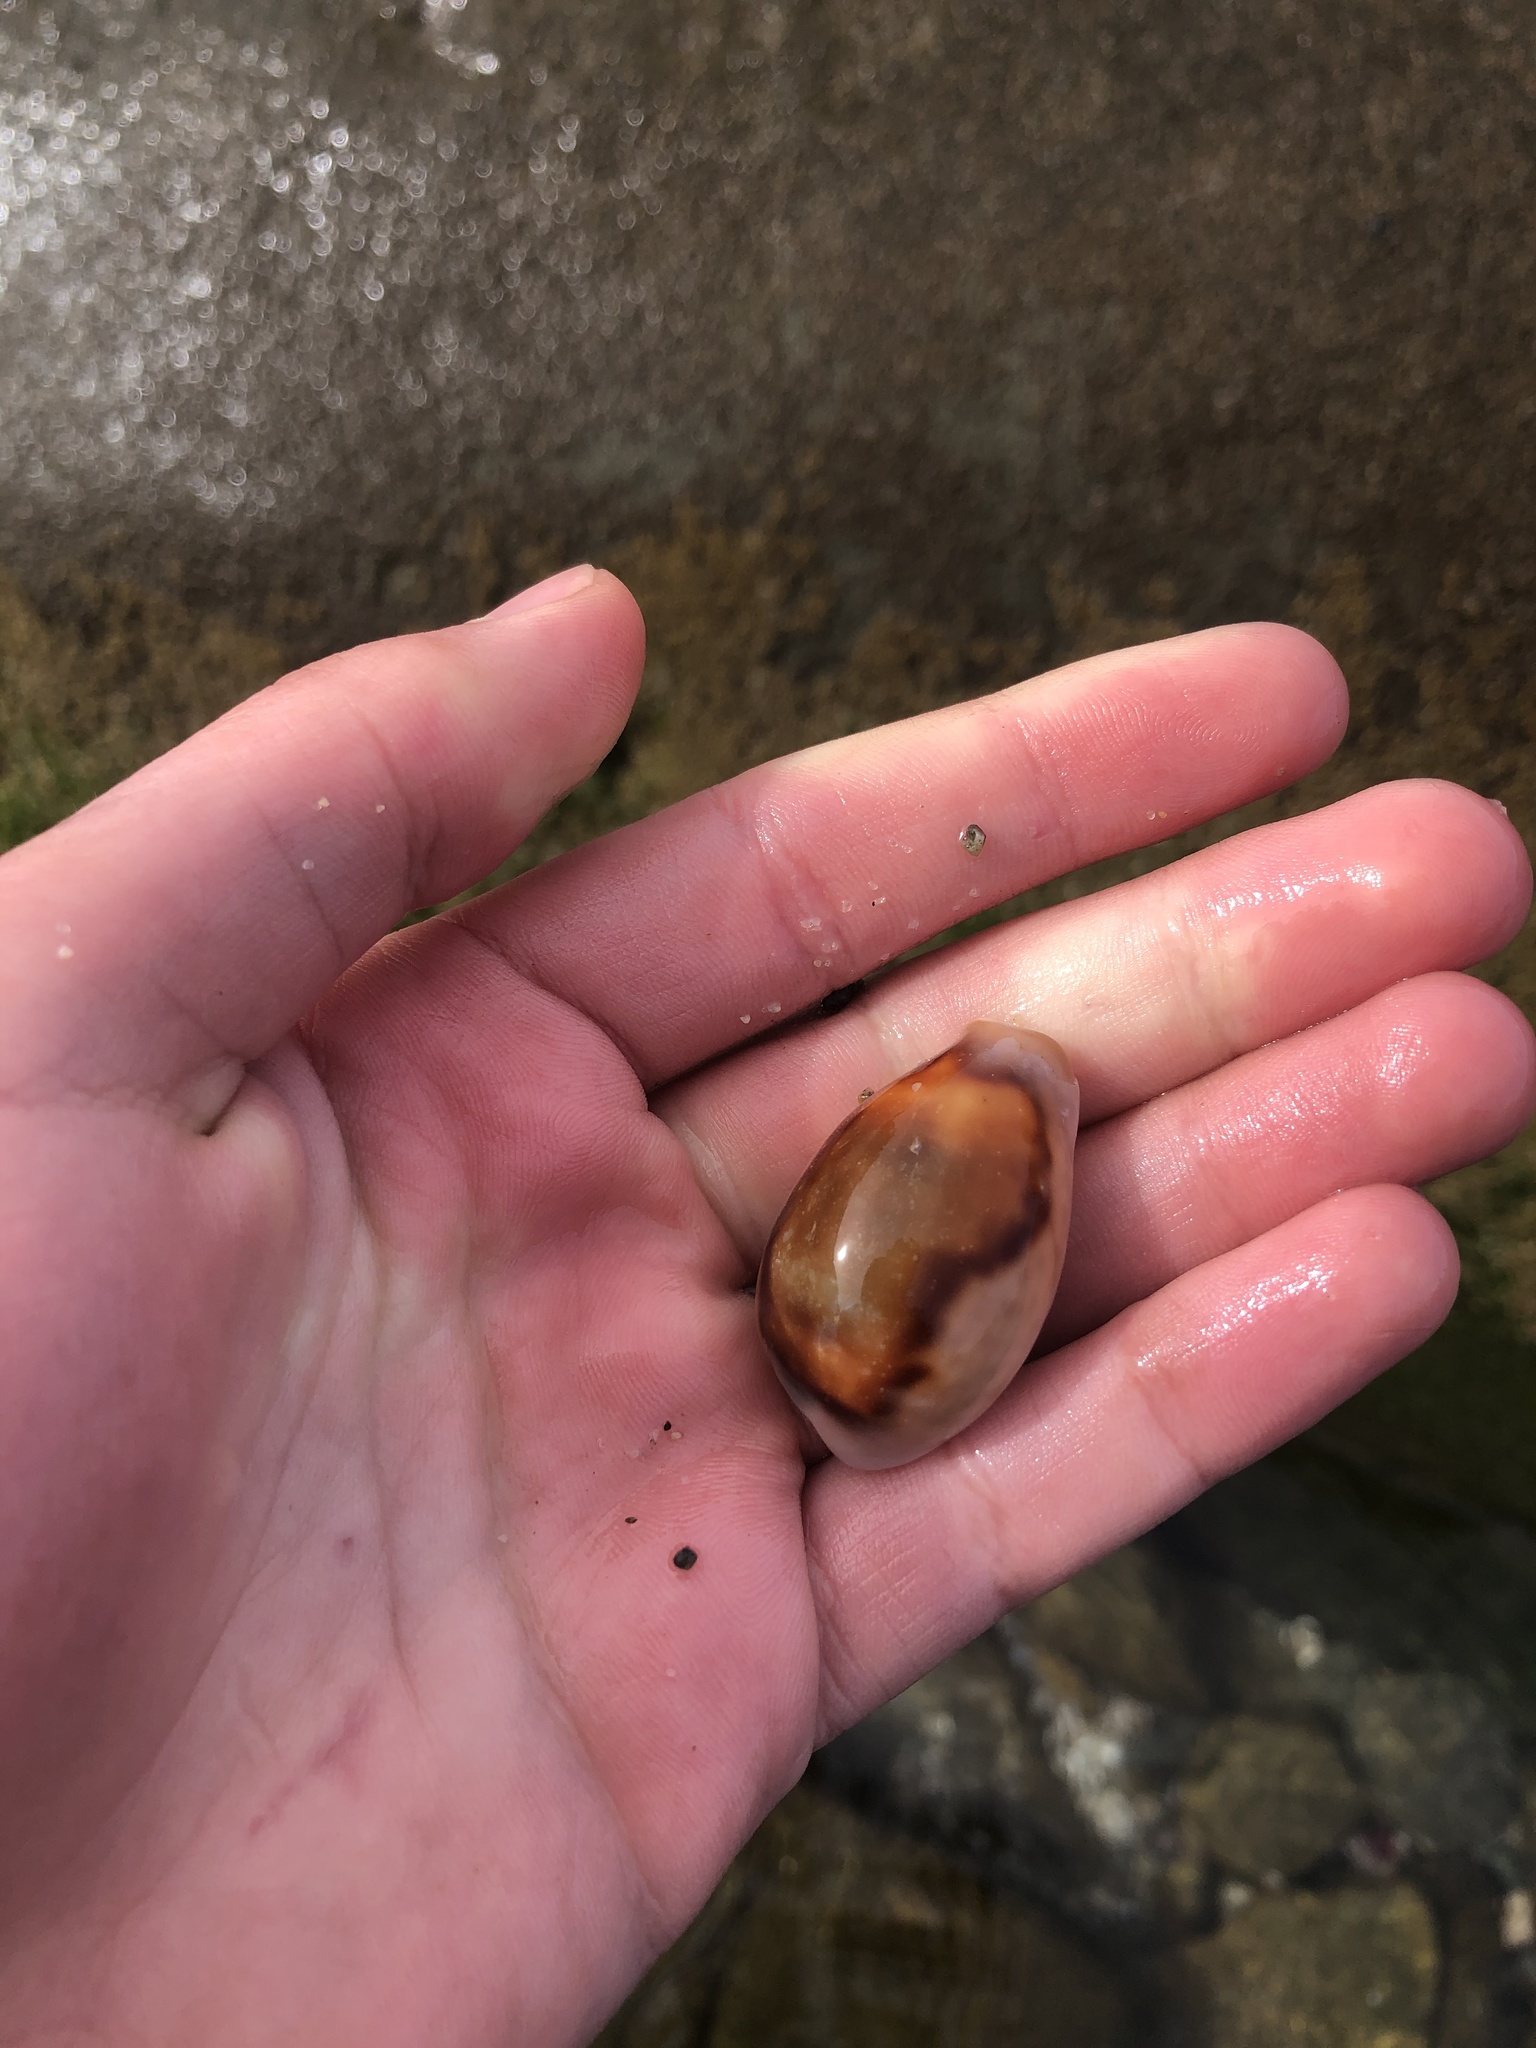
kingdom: Animalia
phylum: Mollusca
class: Gastropoda
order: Littorinimorpha
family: Cypraeidae
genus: Neobernaya
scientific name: Neobernaya spadicea
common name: Chestnut cowrie
